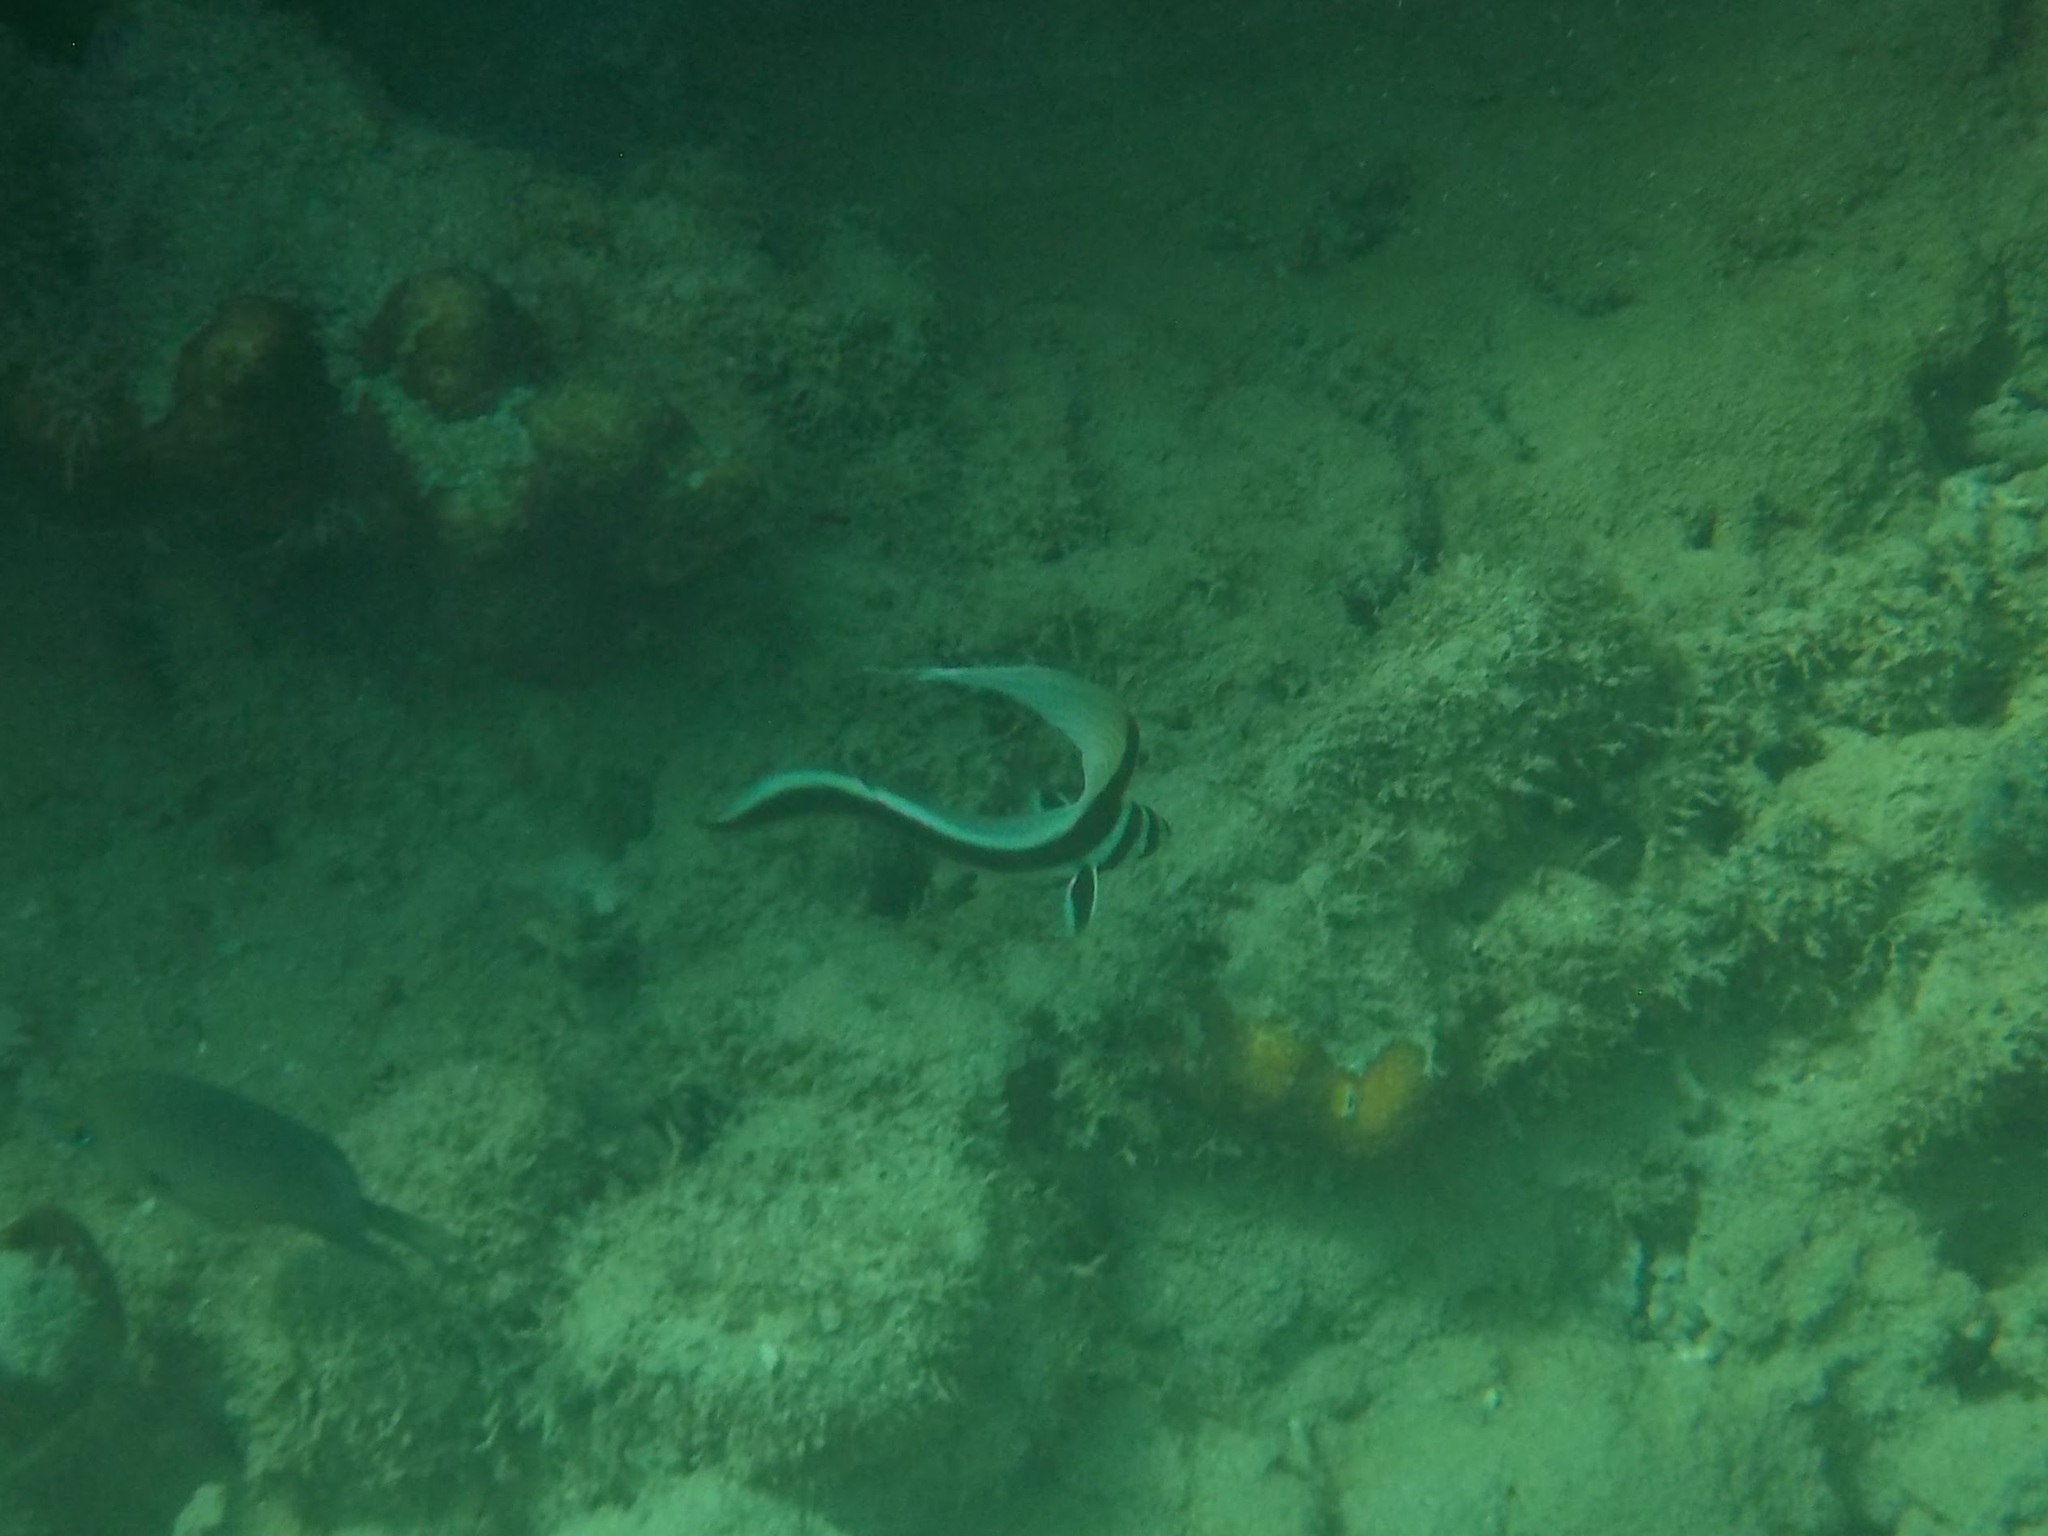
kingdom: Animalia
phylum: Chordata
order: Perciformes
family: Sciaenidae
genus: Equetus
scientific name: Equetus punctatus
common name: Spotted drum
